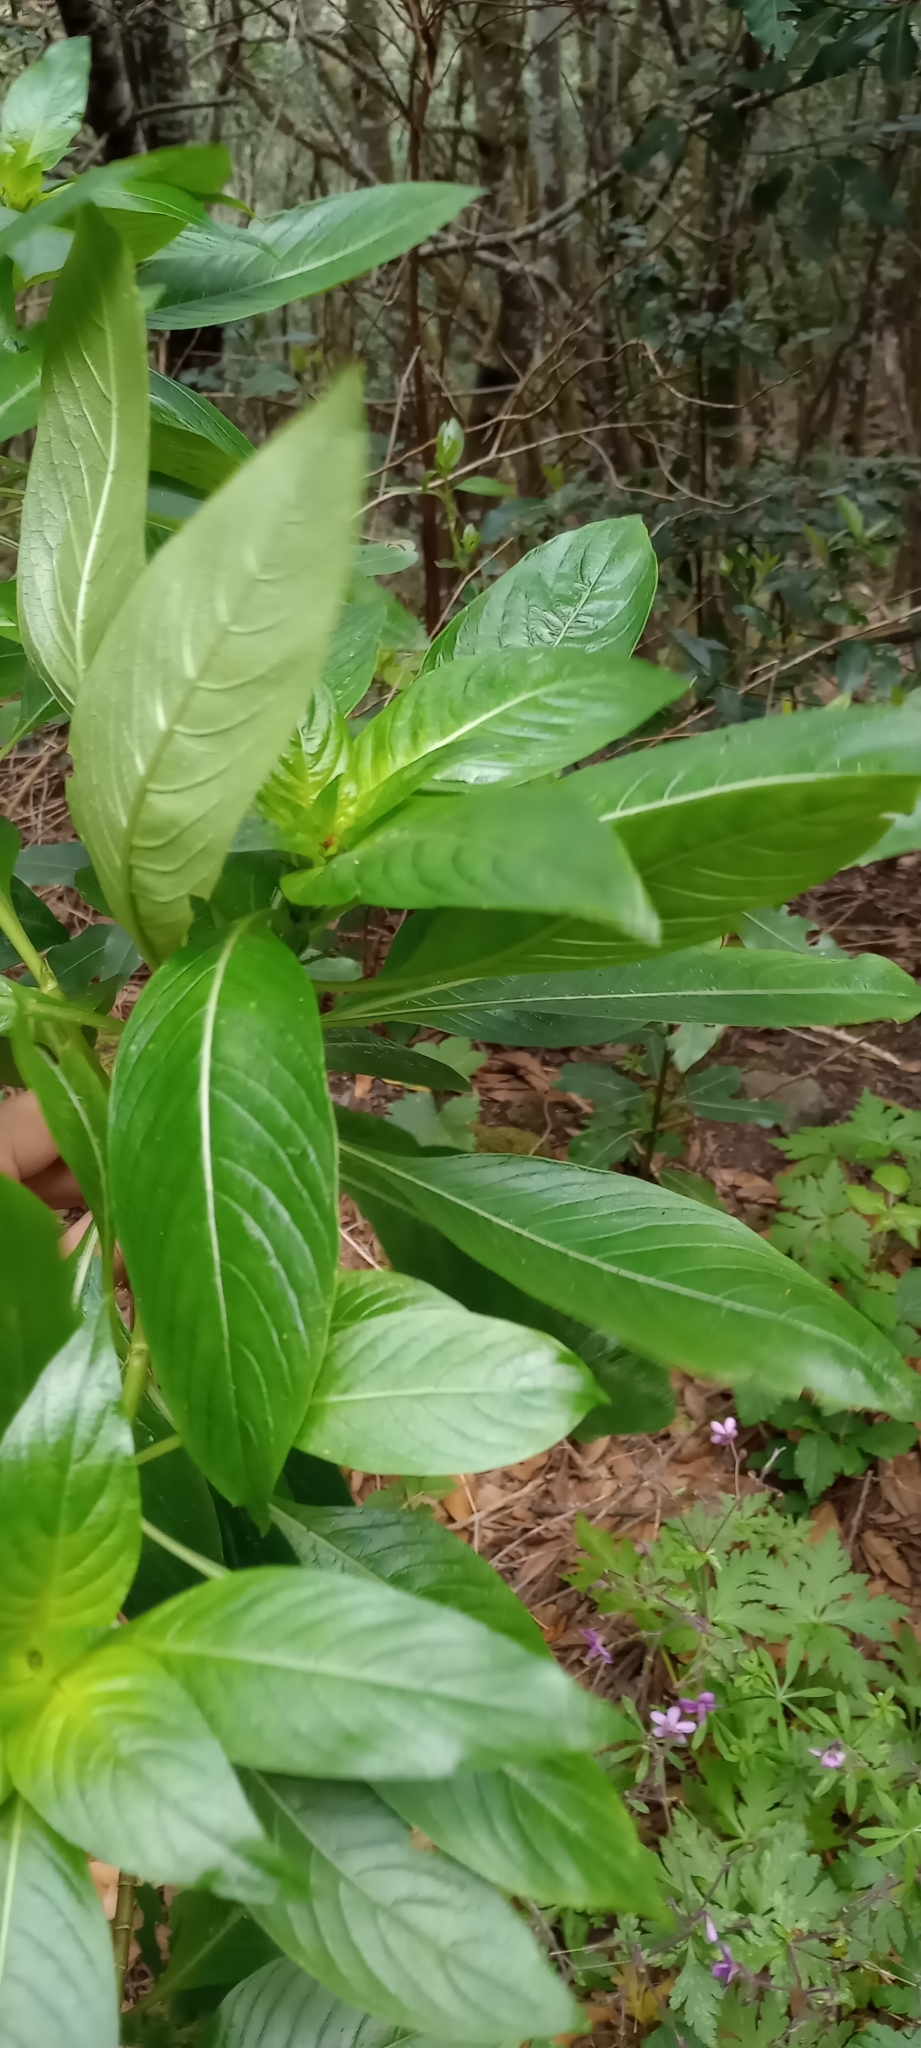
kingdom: Plantae
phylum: Tracheophyta
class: Magnoliopsida
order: Gentianales
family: Rubiaceae
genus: Phyllis
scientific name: Phyllis nobla
